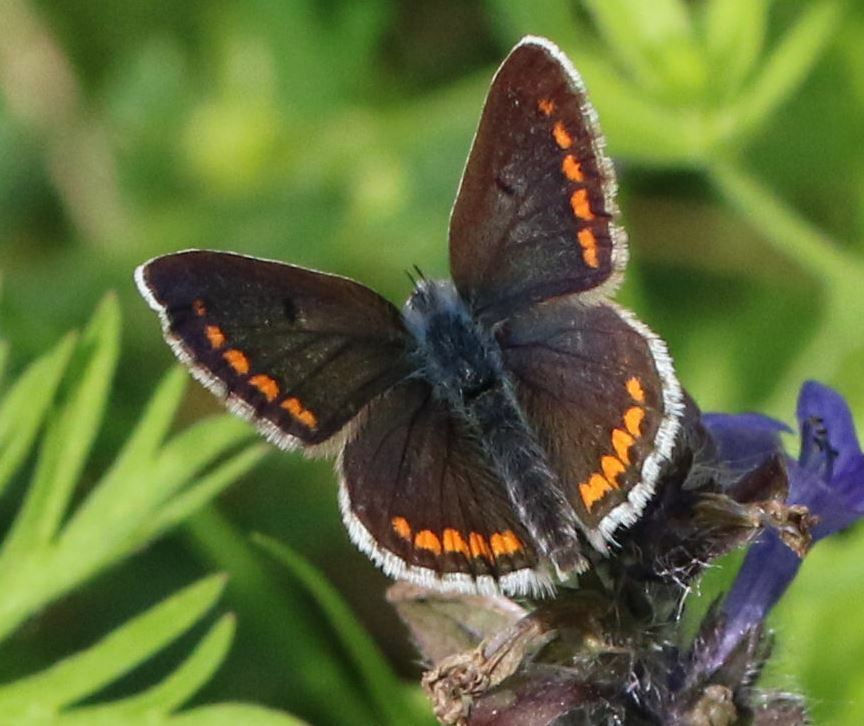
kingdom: Animalia
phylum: Arthropoda
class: Insecta
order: Lepidoptera
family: Lycaenidae
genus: Aricia
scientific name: Aricia agestis
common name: Brown argus
